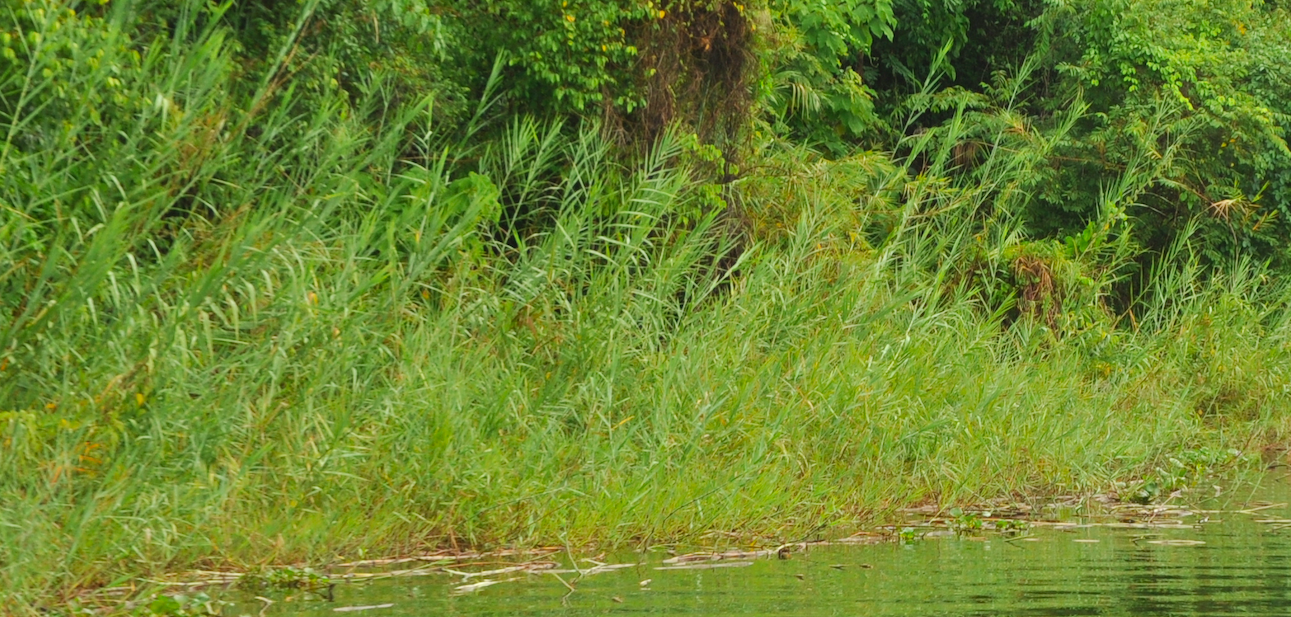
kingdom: Plantae
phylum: Tracheophyta
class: Liliopsida
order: Poales
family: Poaceae
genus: Phragmites
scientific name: Phragmites mauritianus
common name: Reed grass
